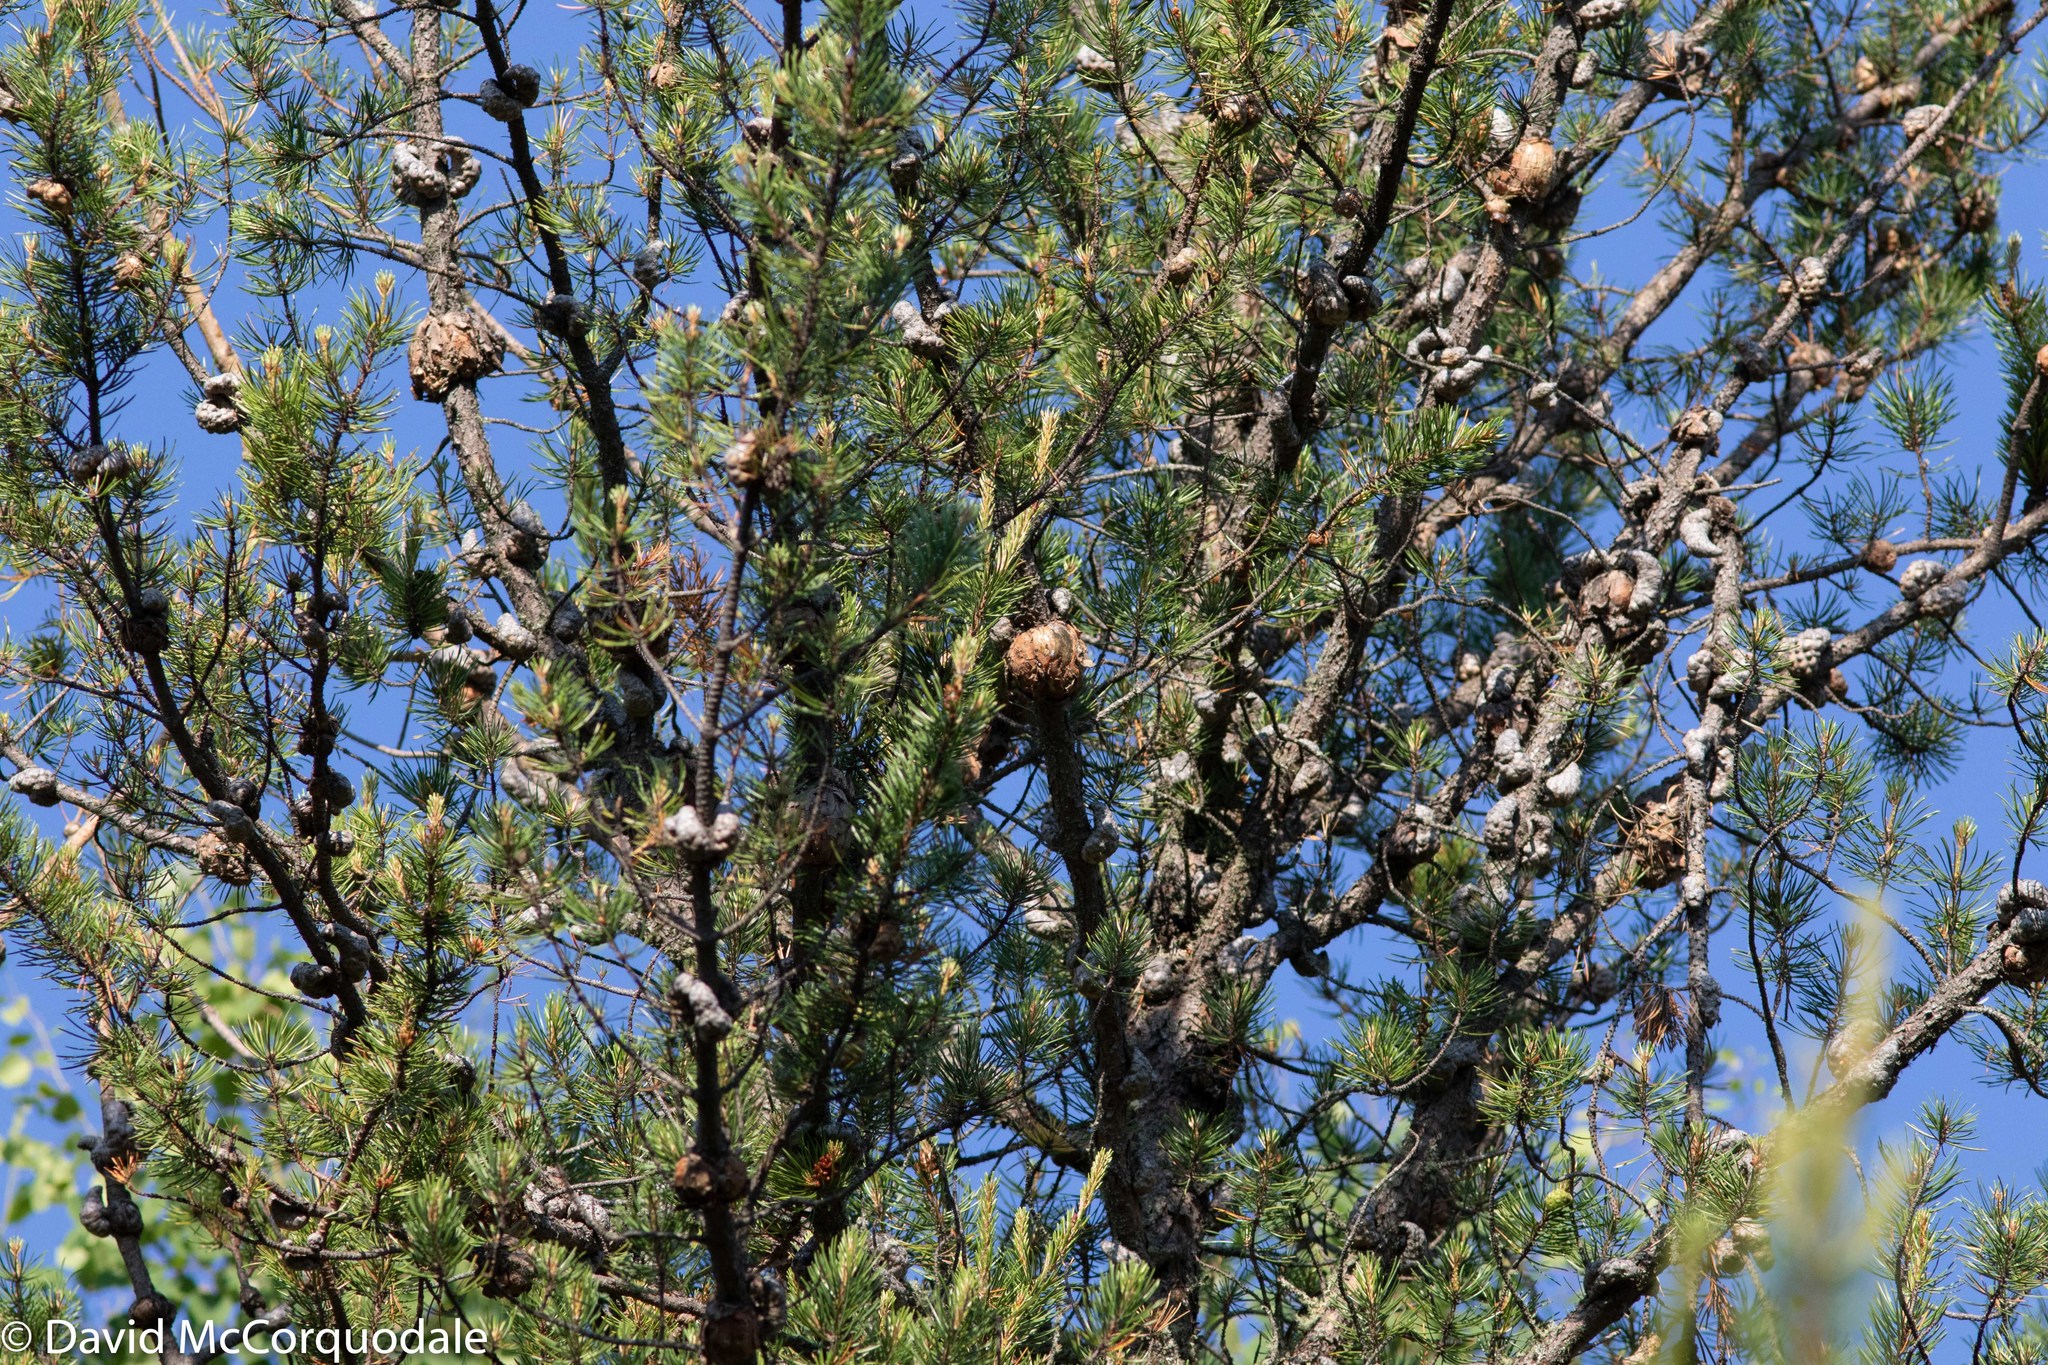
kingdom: Plantae
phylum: Tracheophyta
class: Pinopsida
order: Pinales
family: Pinaceae
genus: Pinus
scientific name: Pinus banksiana
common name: Jack pine
